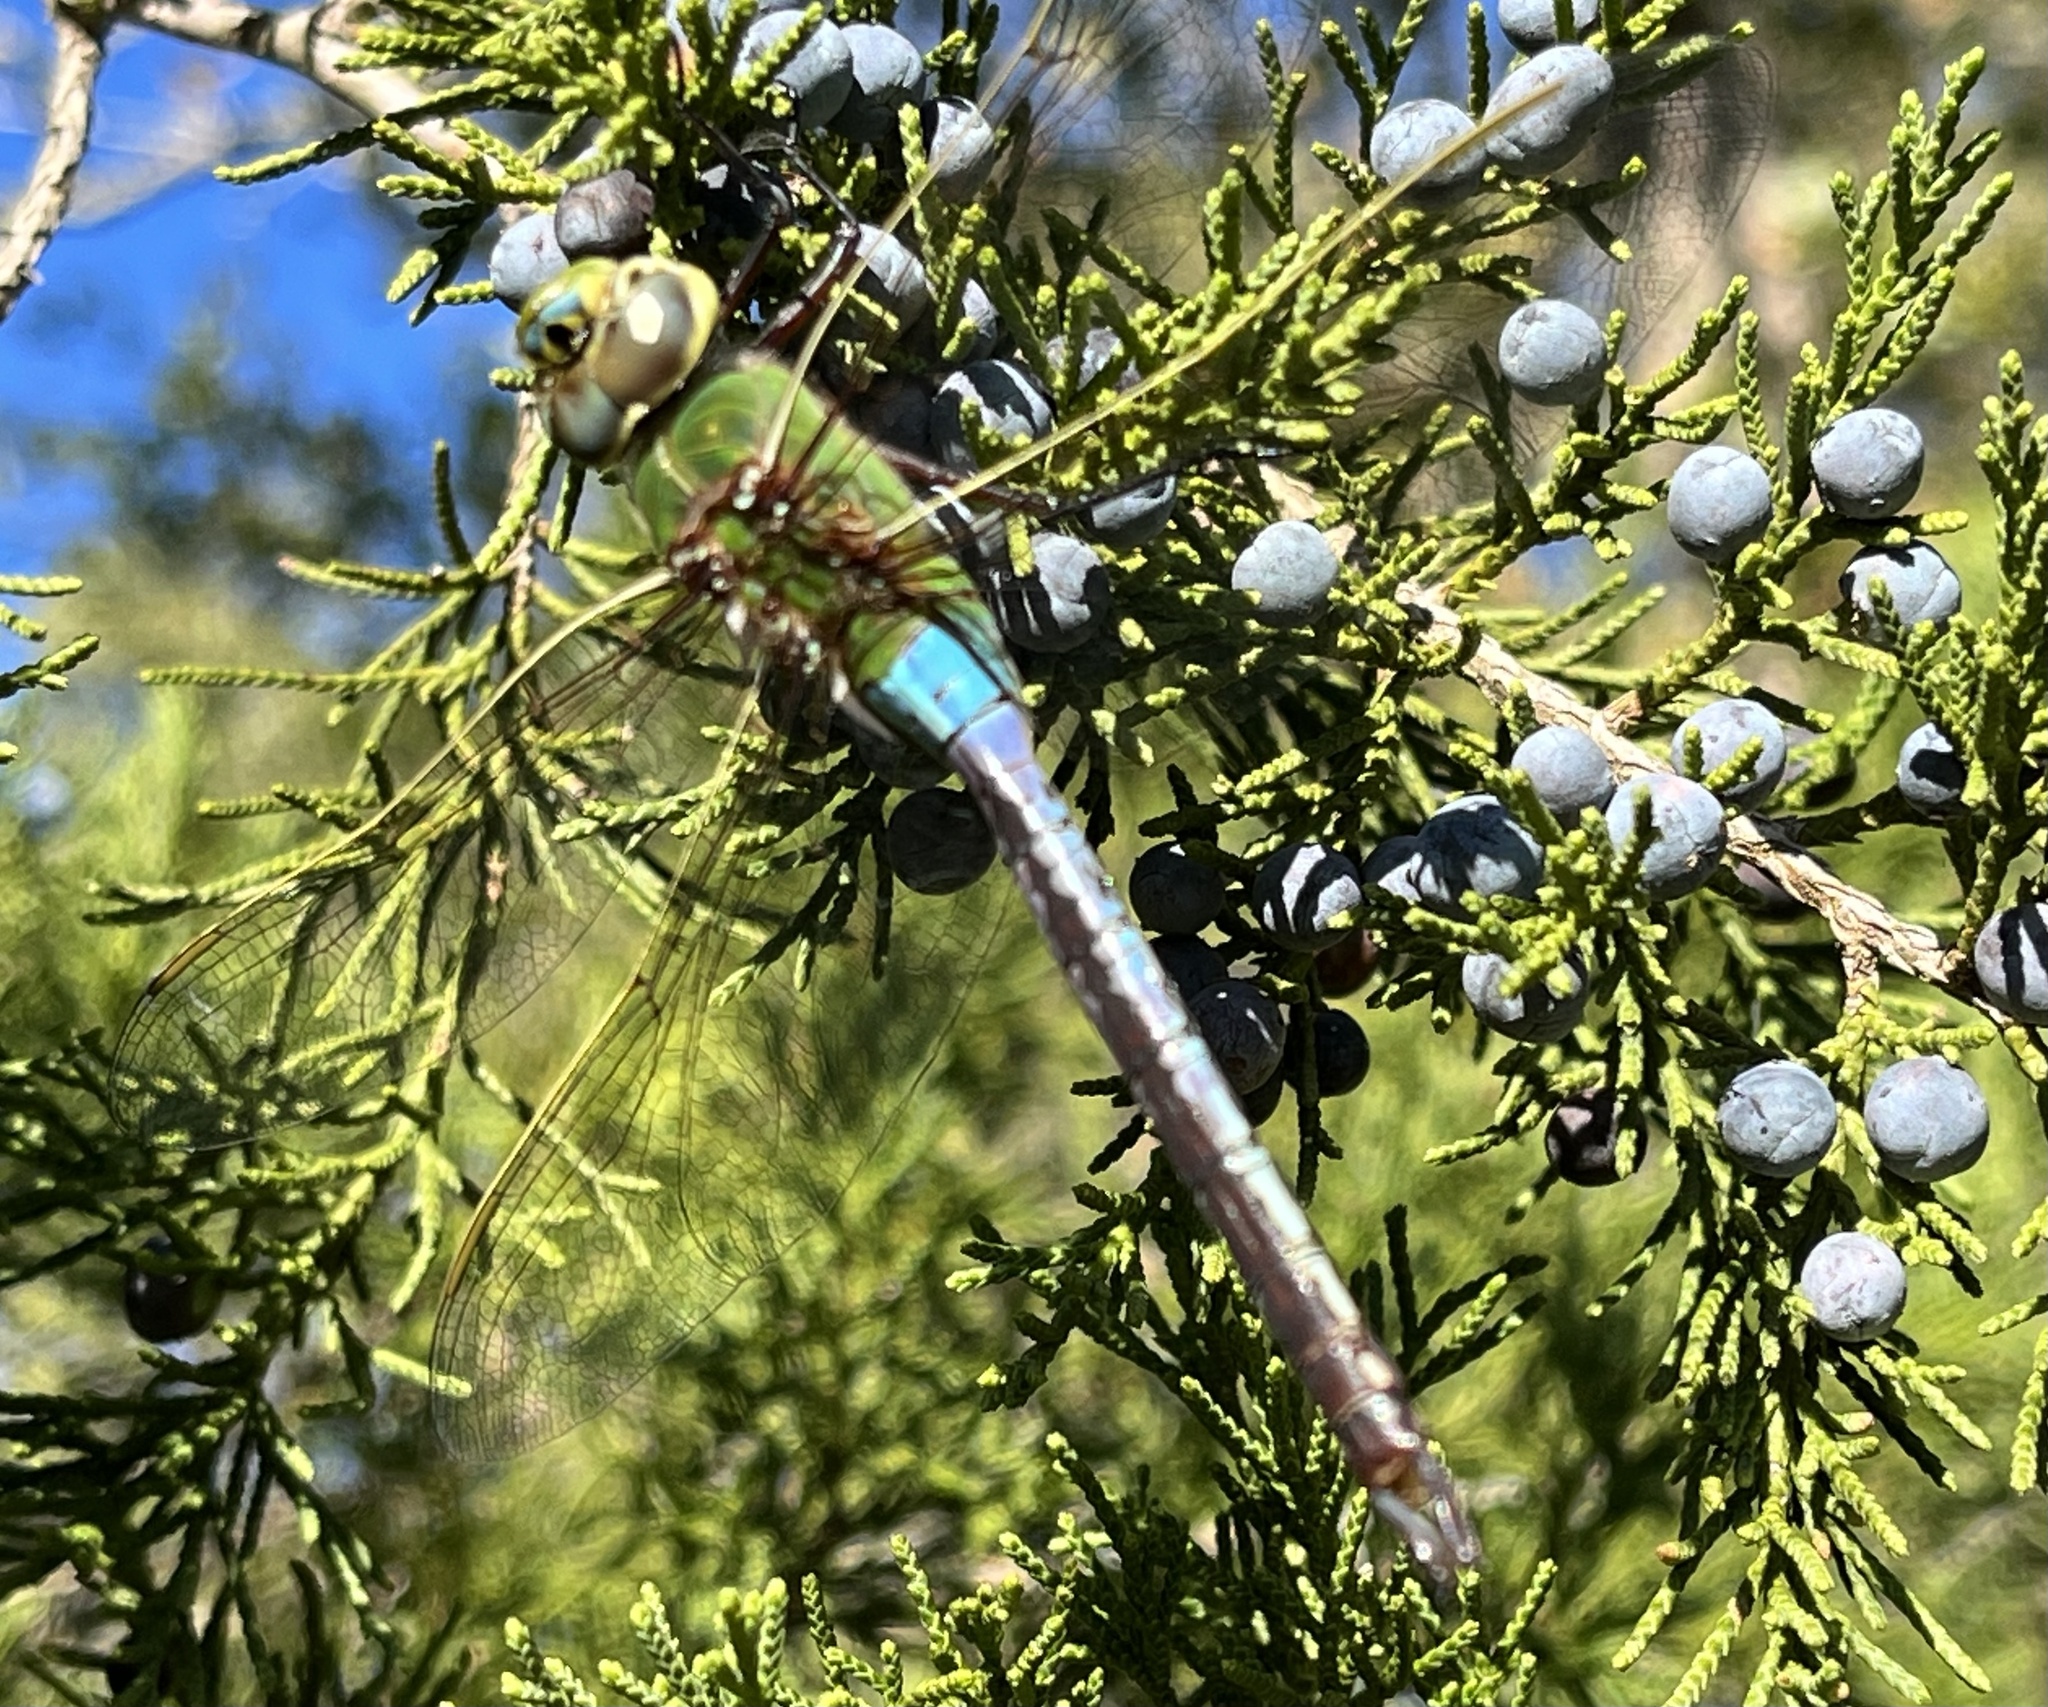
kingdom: Animalia
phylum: Arthropoda
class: Insecta
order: Odonata
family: Aeshnidae
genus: Anax
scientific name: Anax junius
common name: Common green darner
